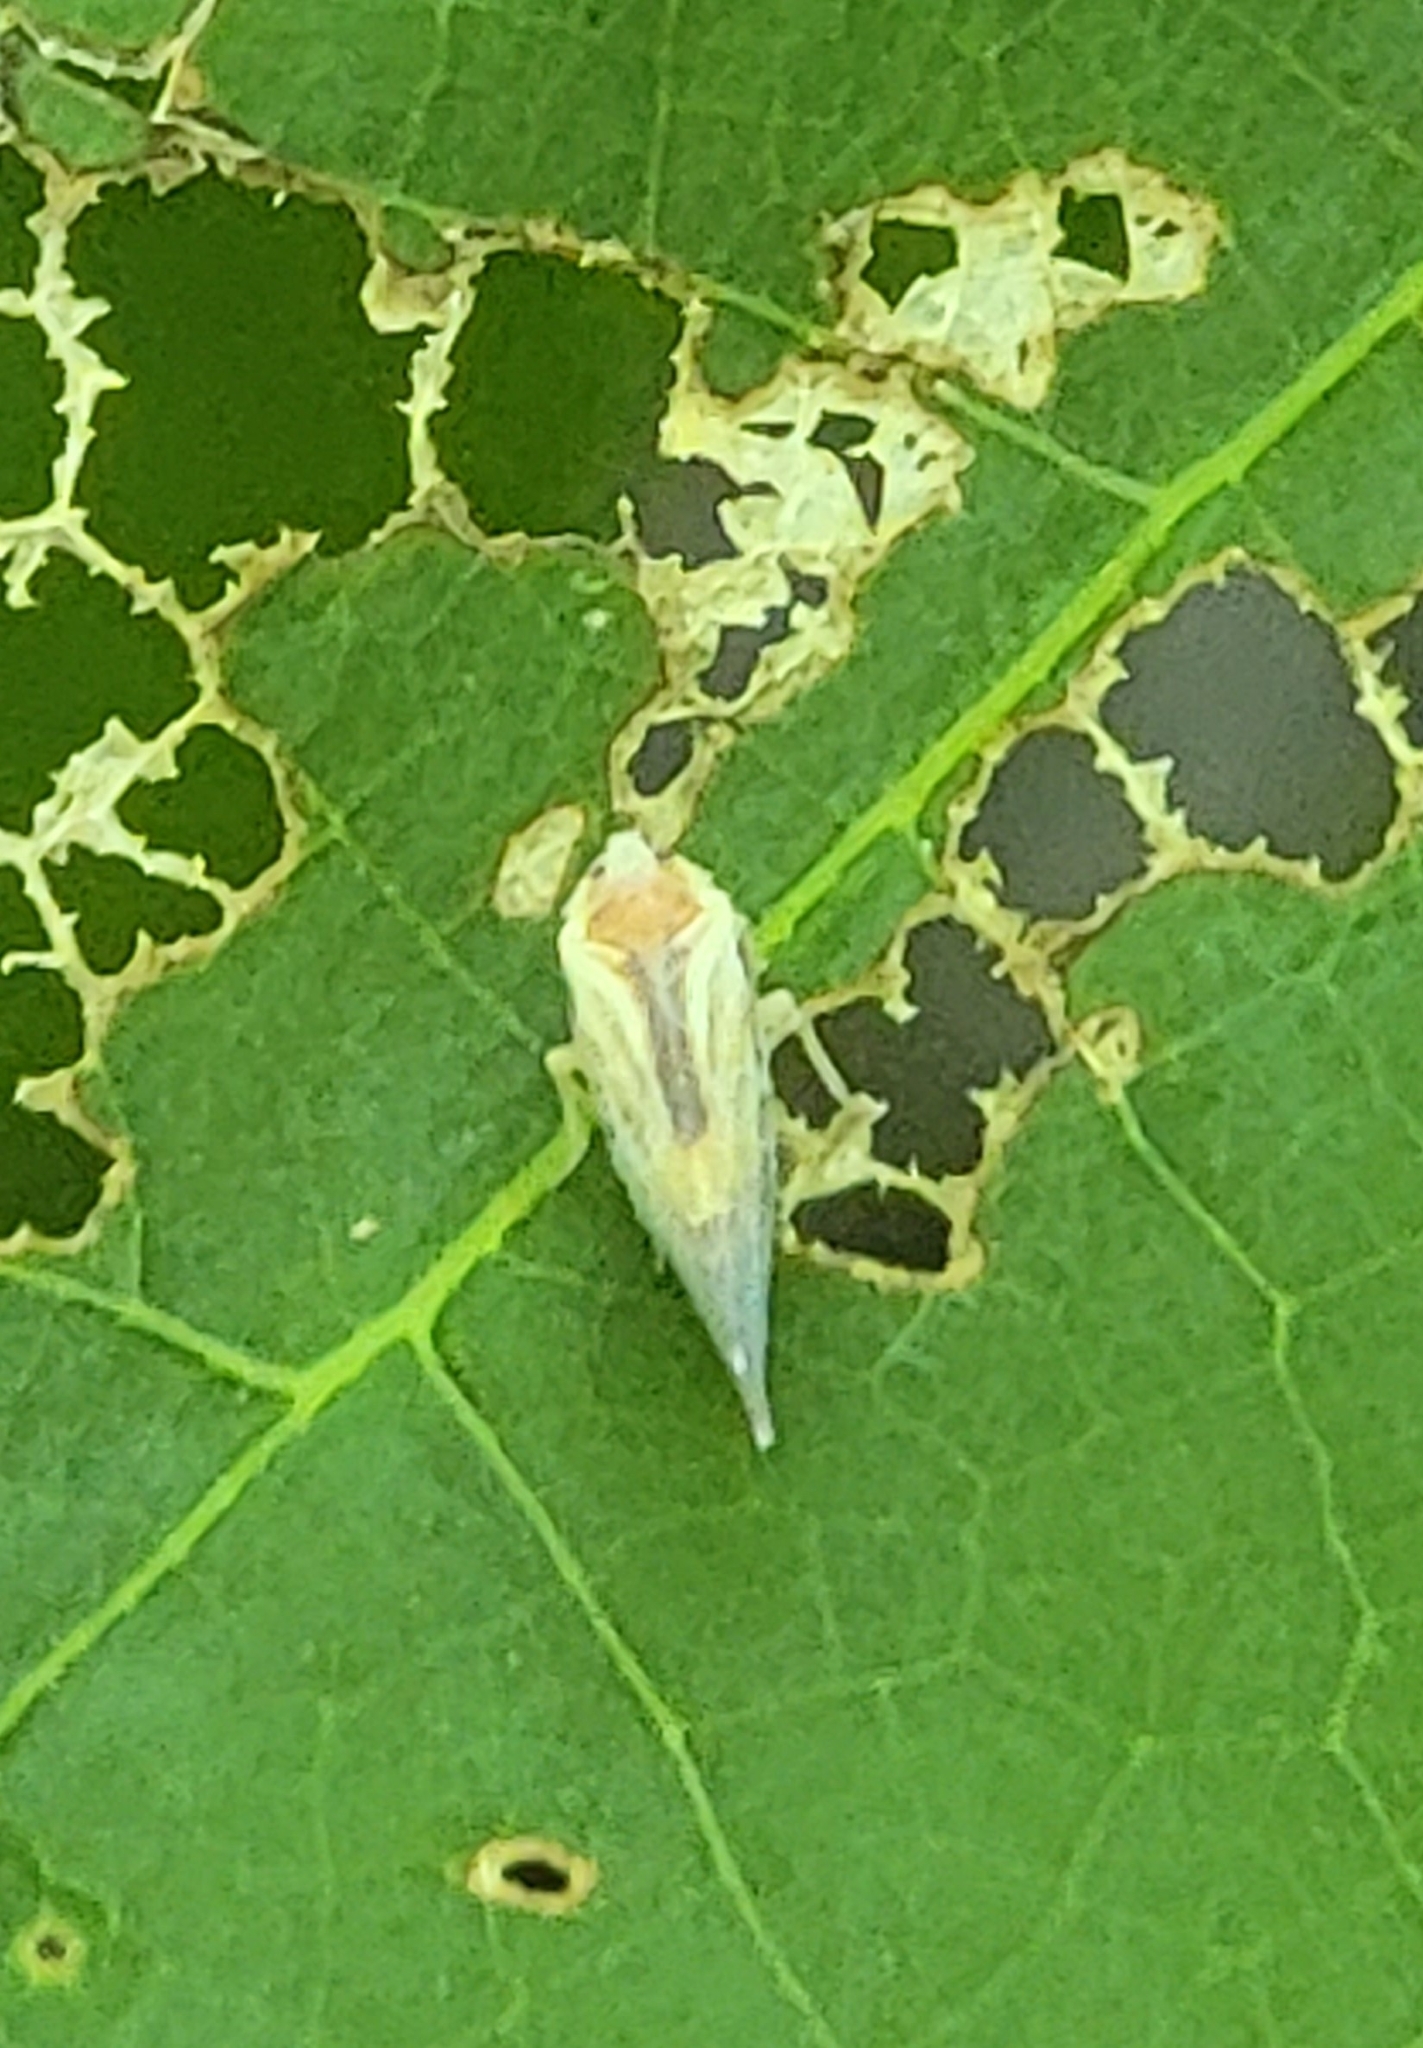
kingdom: Animalia
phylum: Arthropoda
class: Insecta
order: Hemiptera
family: Derbidae
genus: Omolicna
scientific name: Omolicna uhleri
